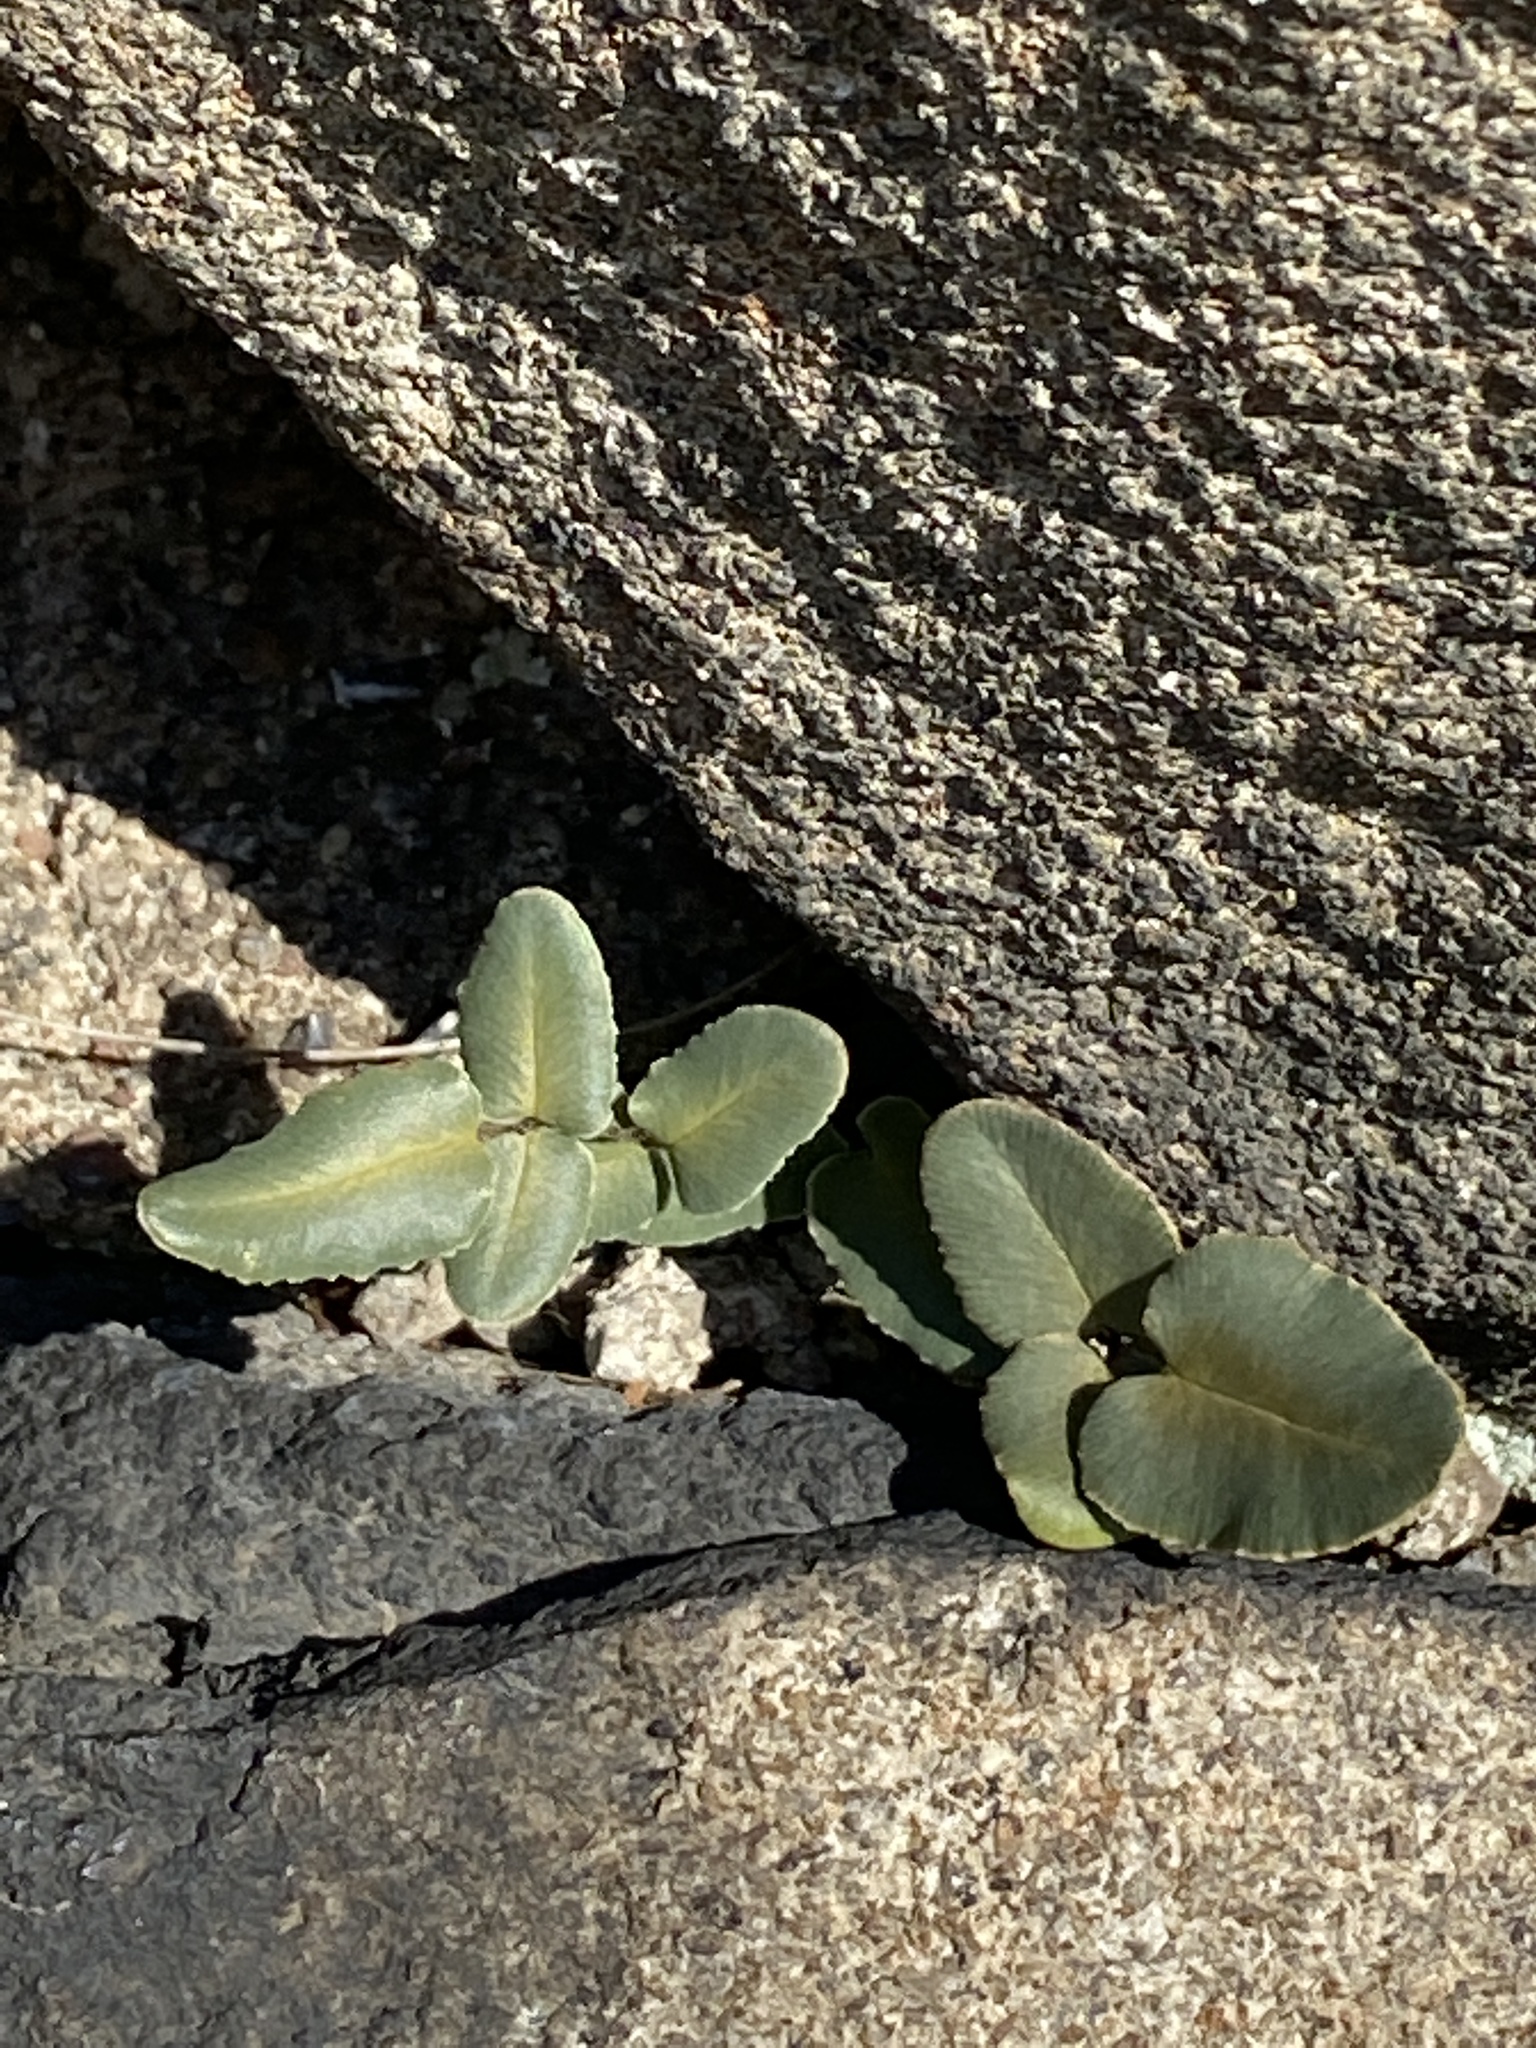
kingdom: Plantae
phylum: Tracheophyta
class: Polypodiopsida
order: Polypodiales
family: Pteridaceae
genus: Pellaea
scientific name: Pellaea atropurpurea
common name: Hairy cliffbrake
